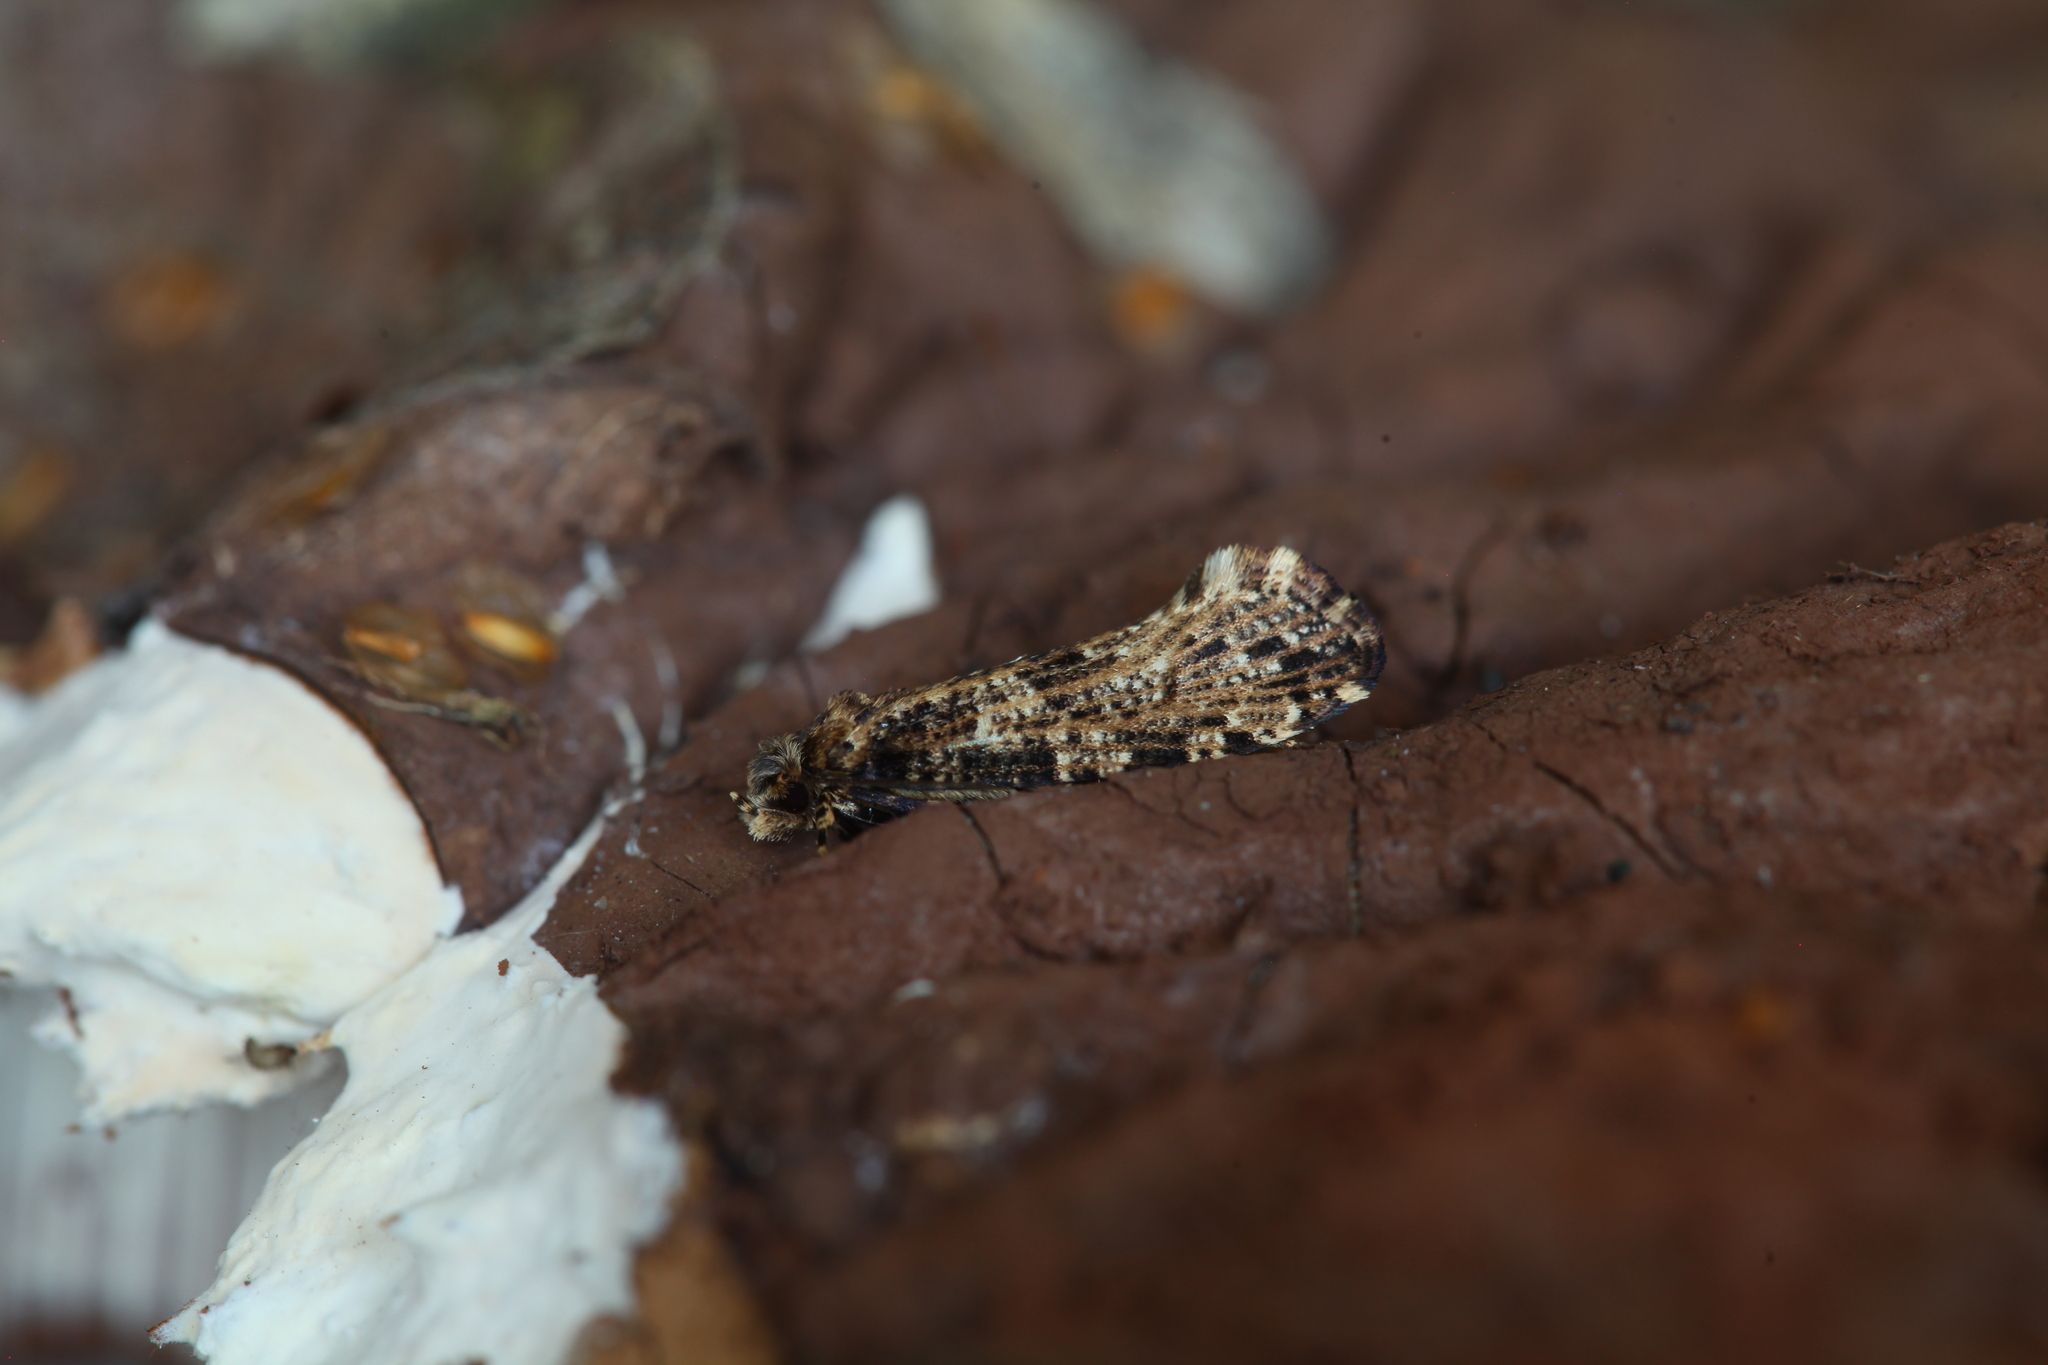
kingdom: Animalia
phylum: Arthropoda
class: Insecta
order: Lepidoptera
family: Tineidae
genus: Morophaga
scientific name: Morophaga choragella
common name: Large clothes
